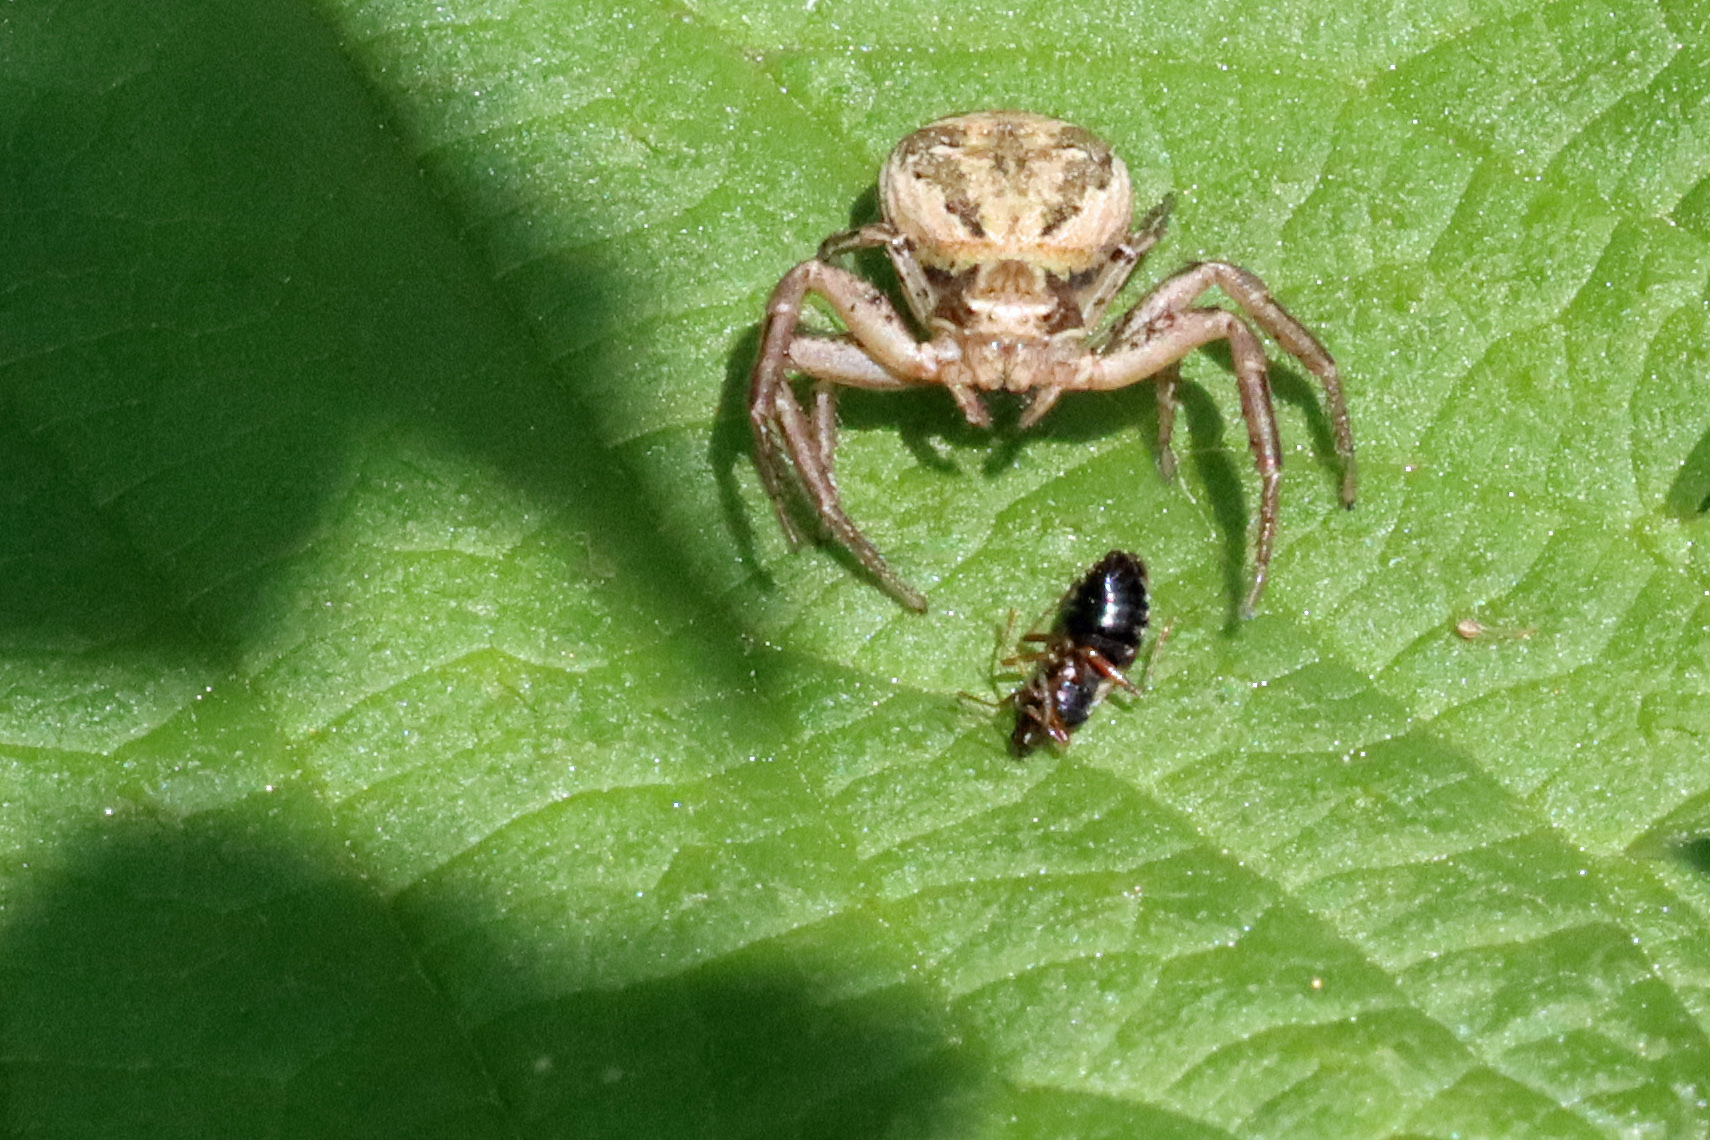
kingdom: Animalia
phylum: Arthropoda
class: Arachnida
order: Araneae
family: Thomisidae
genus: Xysticus
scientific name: Xysticus
